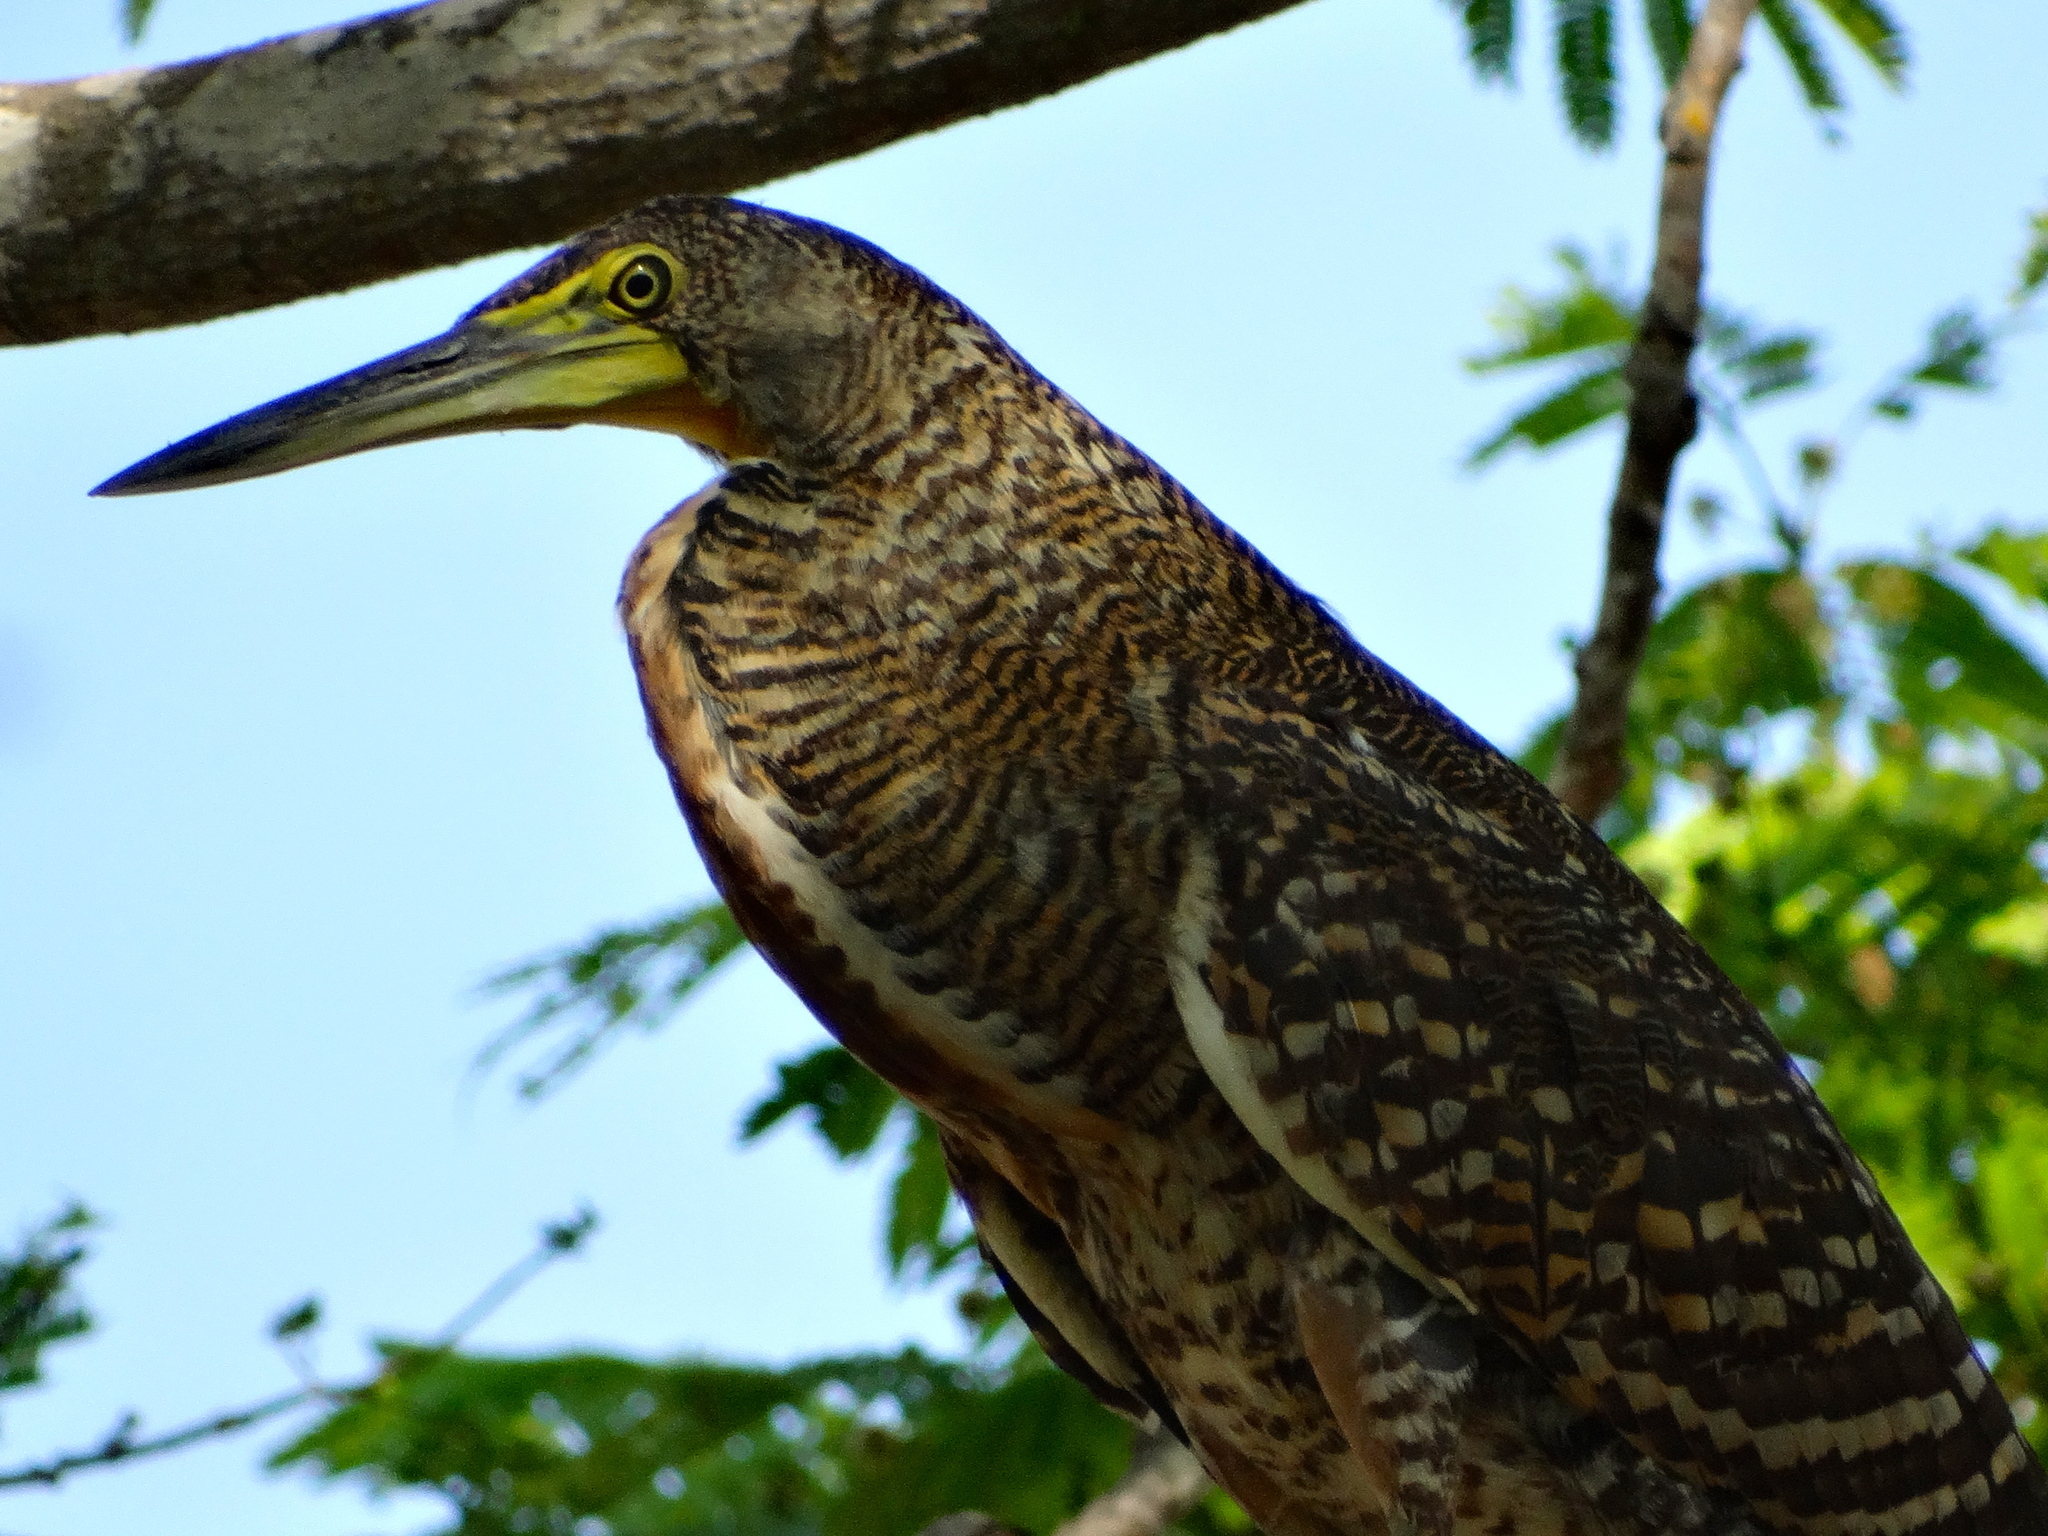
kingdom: Animalia
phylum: Chordata
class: Aves
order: Pelecaniformes
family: Ardeidae
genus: Tigrisoma
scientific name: Tigrisoma mexicanum
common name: Bare-throated tiger-heron
